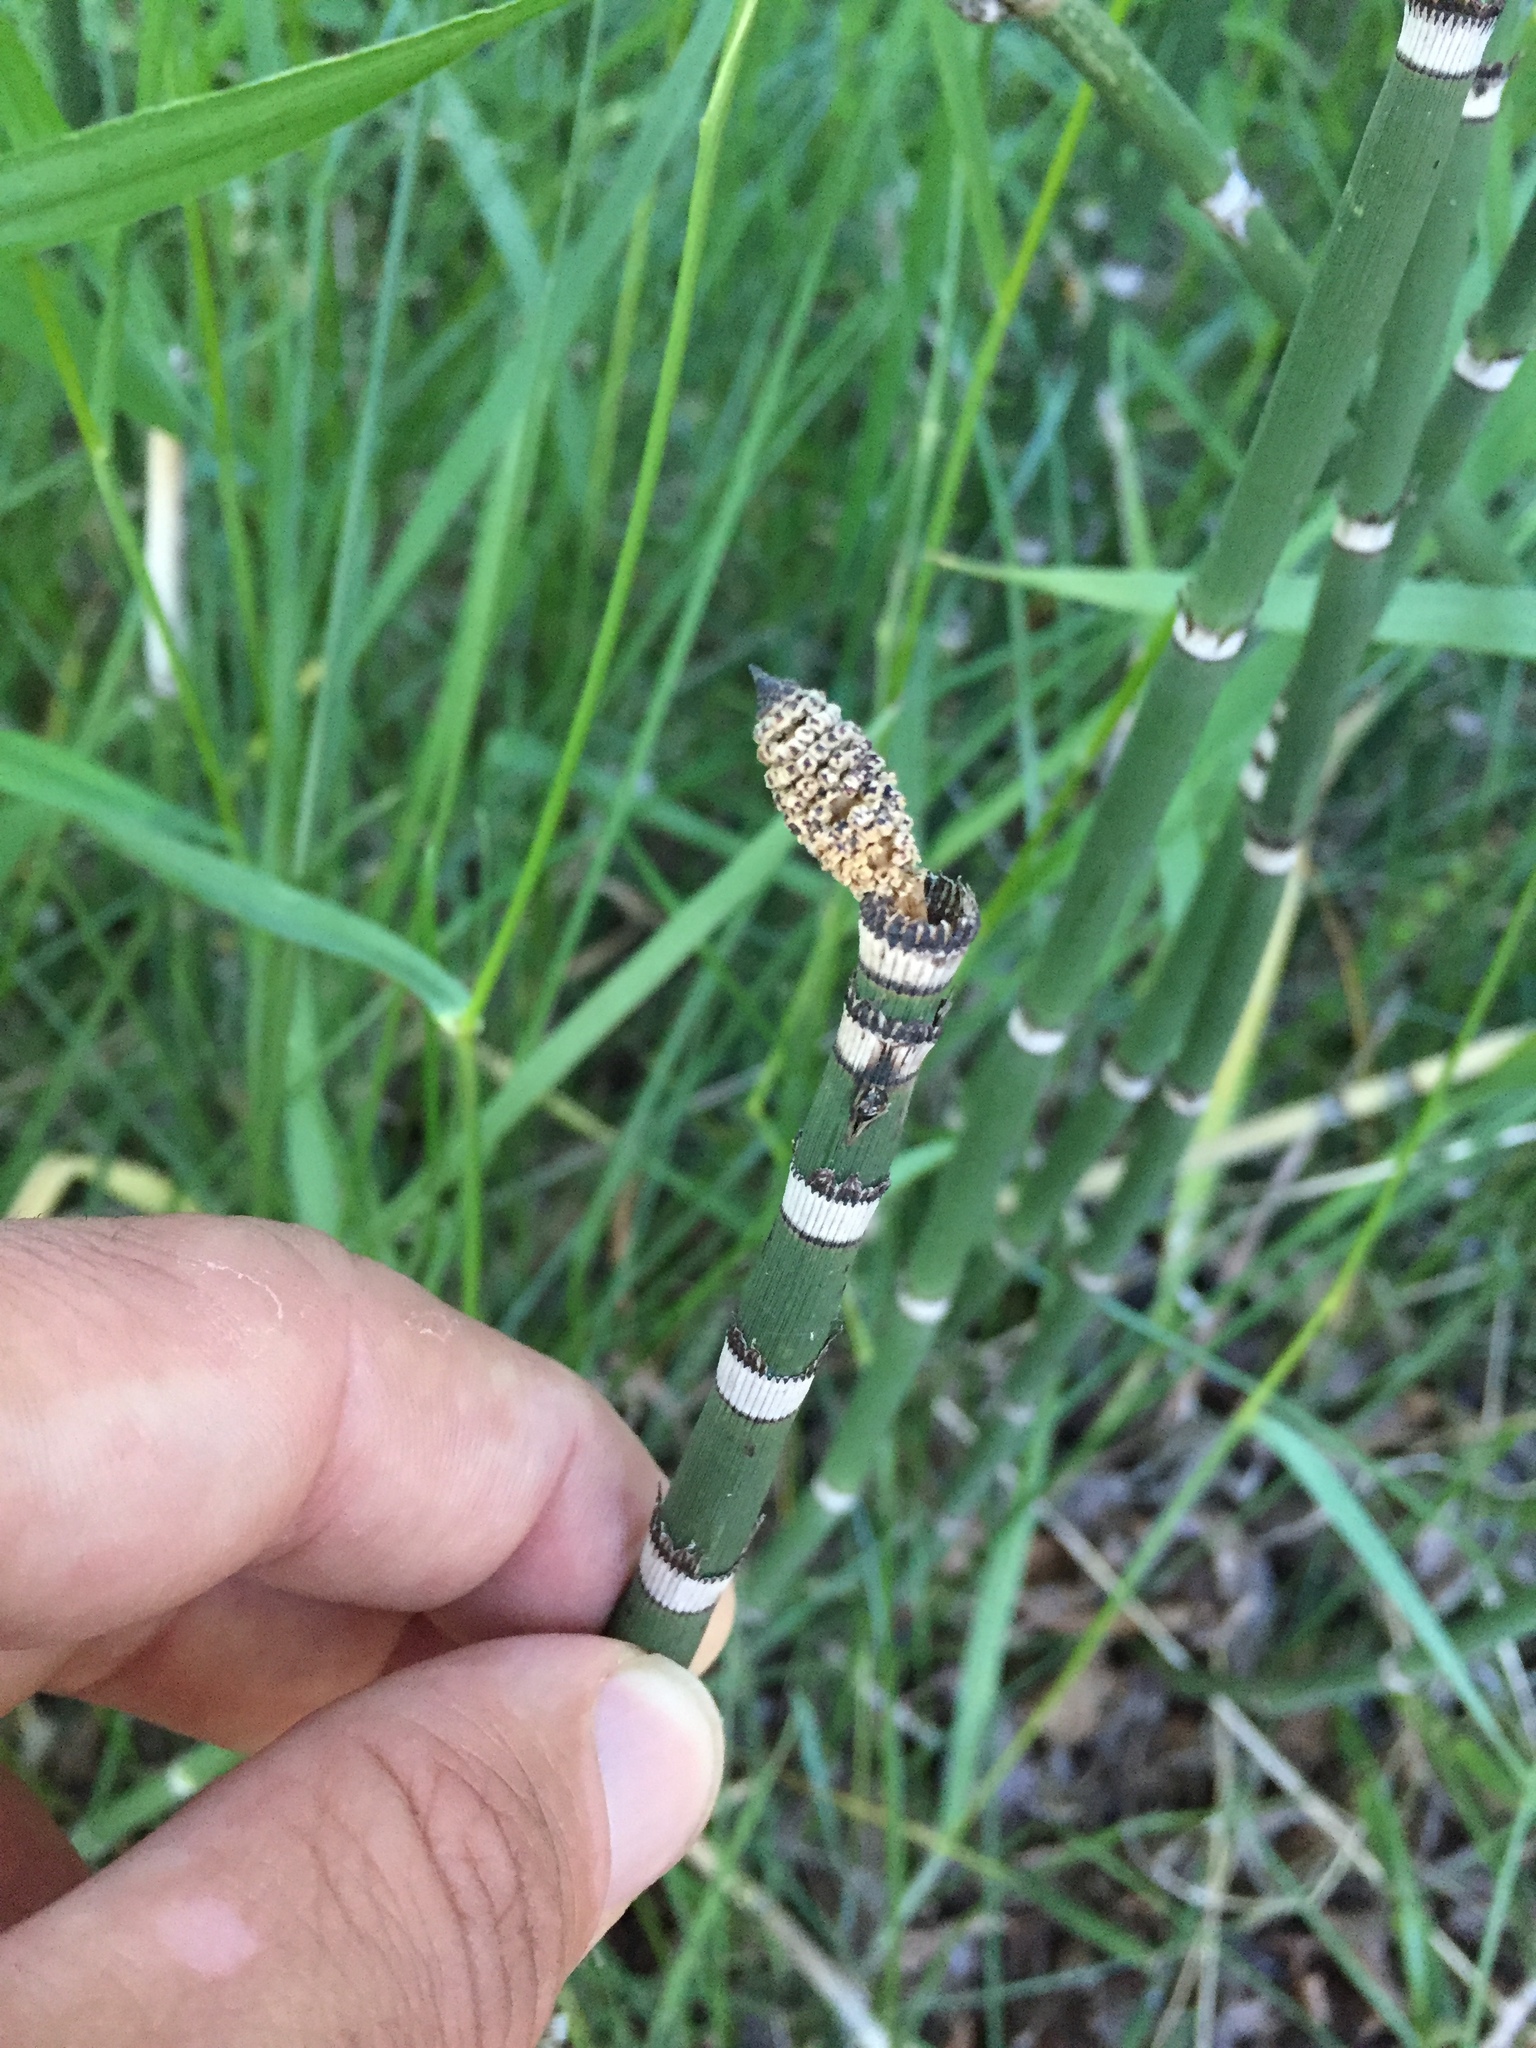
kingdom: Plantae
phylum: Tracheophyta
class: Polypodiopsida
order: Equisetales
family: Equisetaceae
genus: Equisetum
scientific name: Equisetum hyemale
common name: Rough horsetail
